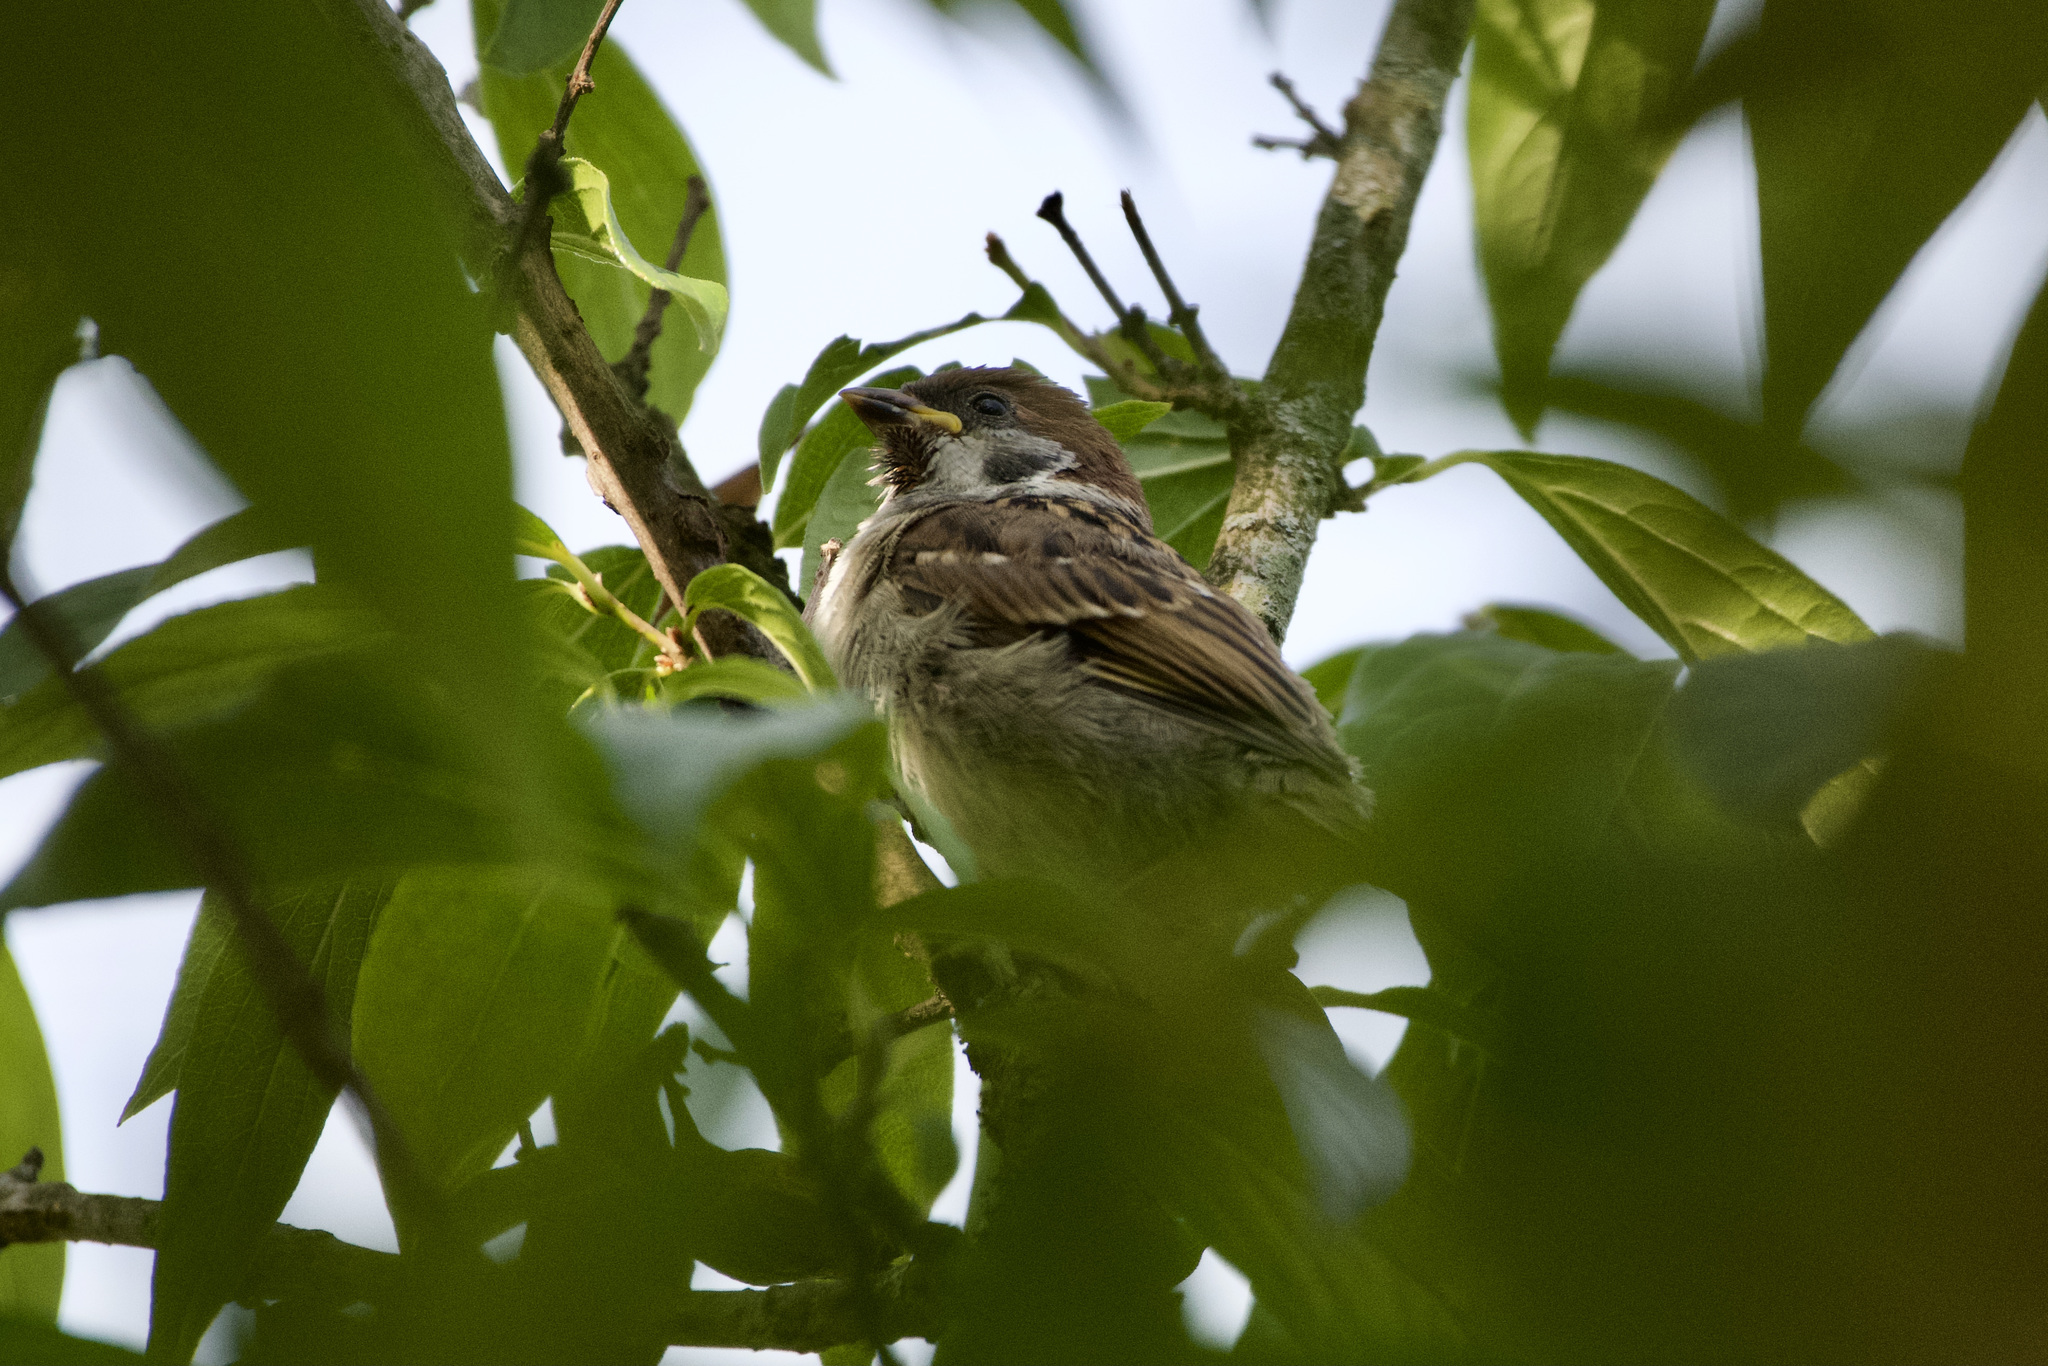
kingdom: Animalia
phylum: Chordata
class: Aves
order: Passeriformes
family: Passeridae
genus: Passer
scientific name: Passer montanus
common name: Eurasian tree sparrow
